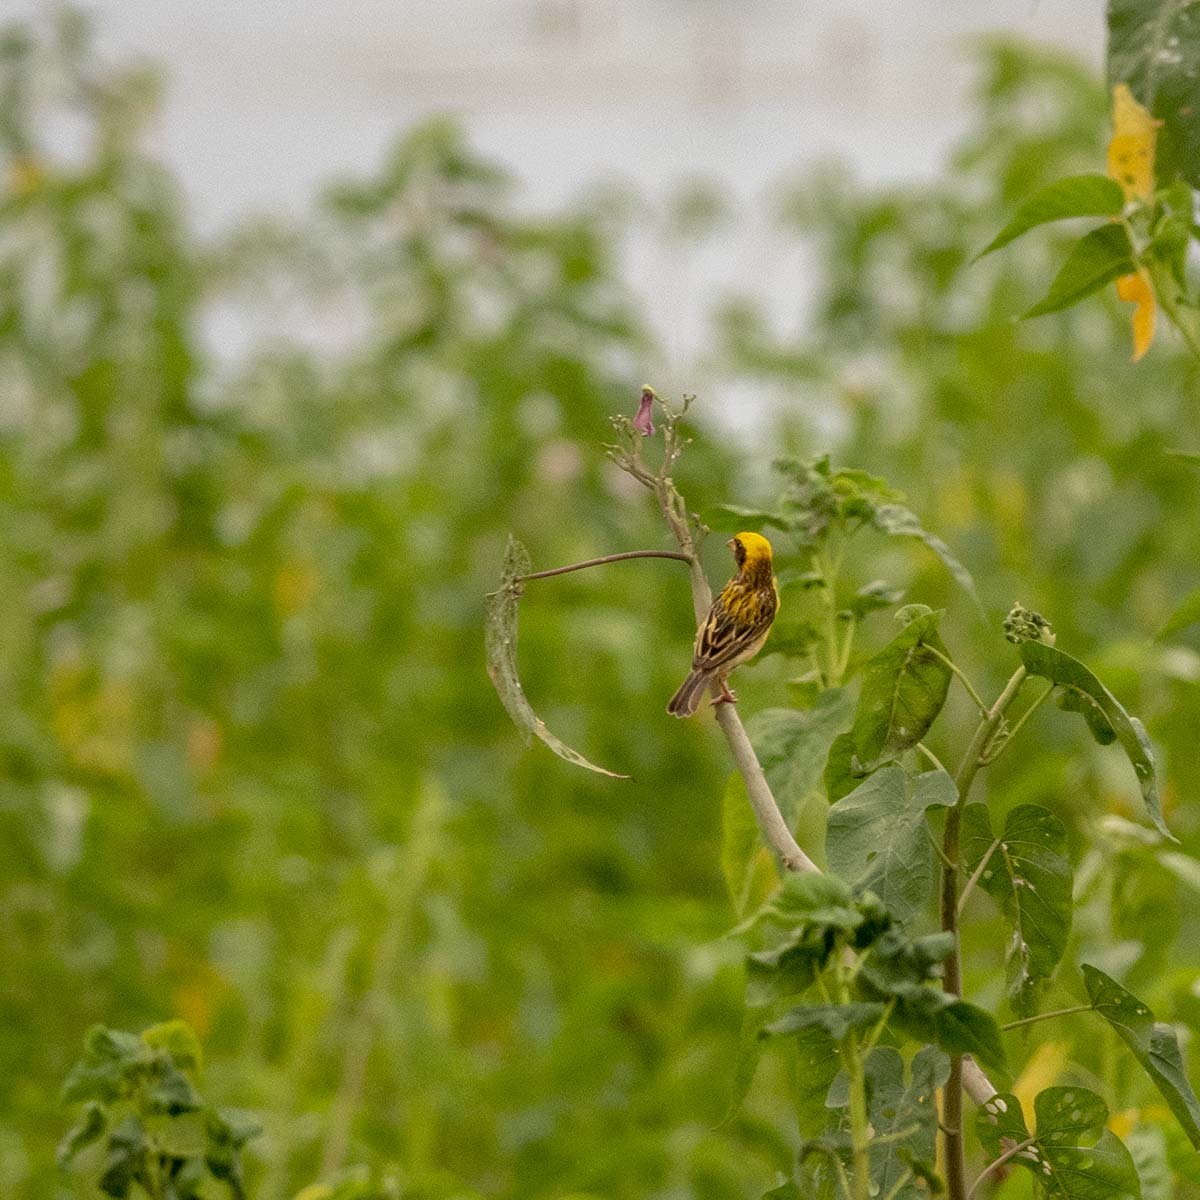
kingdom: Animalia
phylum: Chordata
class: Aves
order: Passeriformes
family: Ploceidae
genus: Ploceus
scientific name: Ploceus philippinus
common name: Baya weaver
